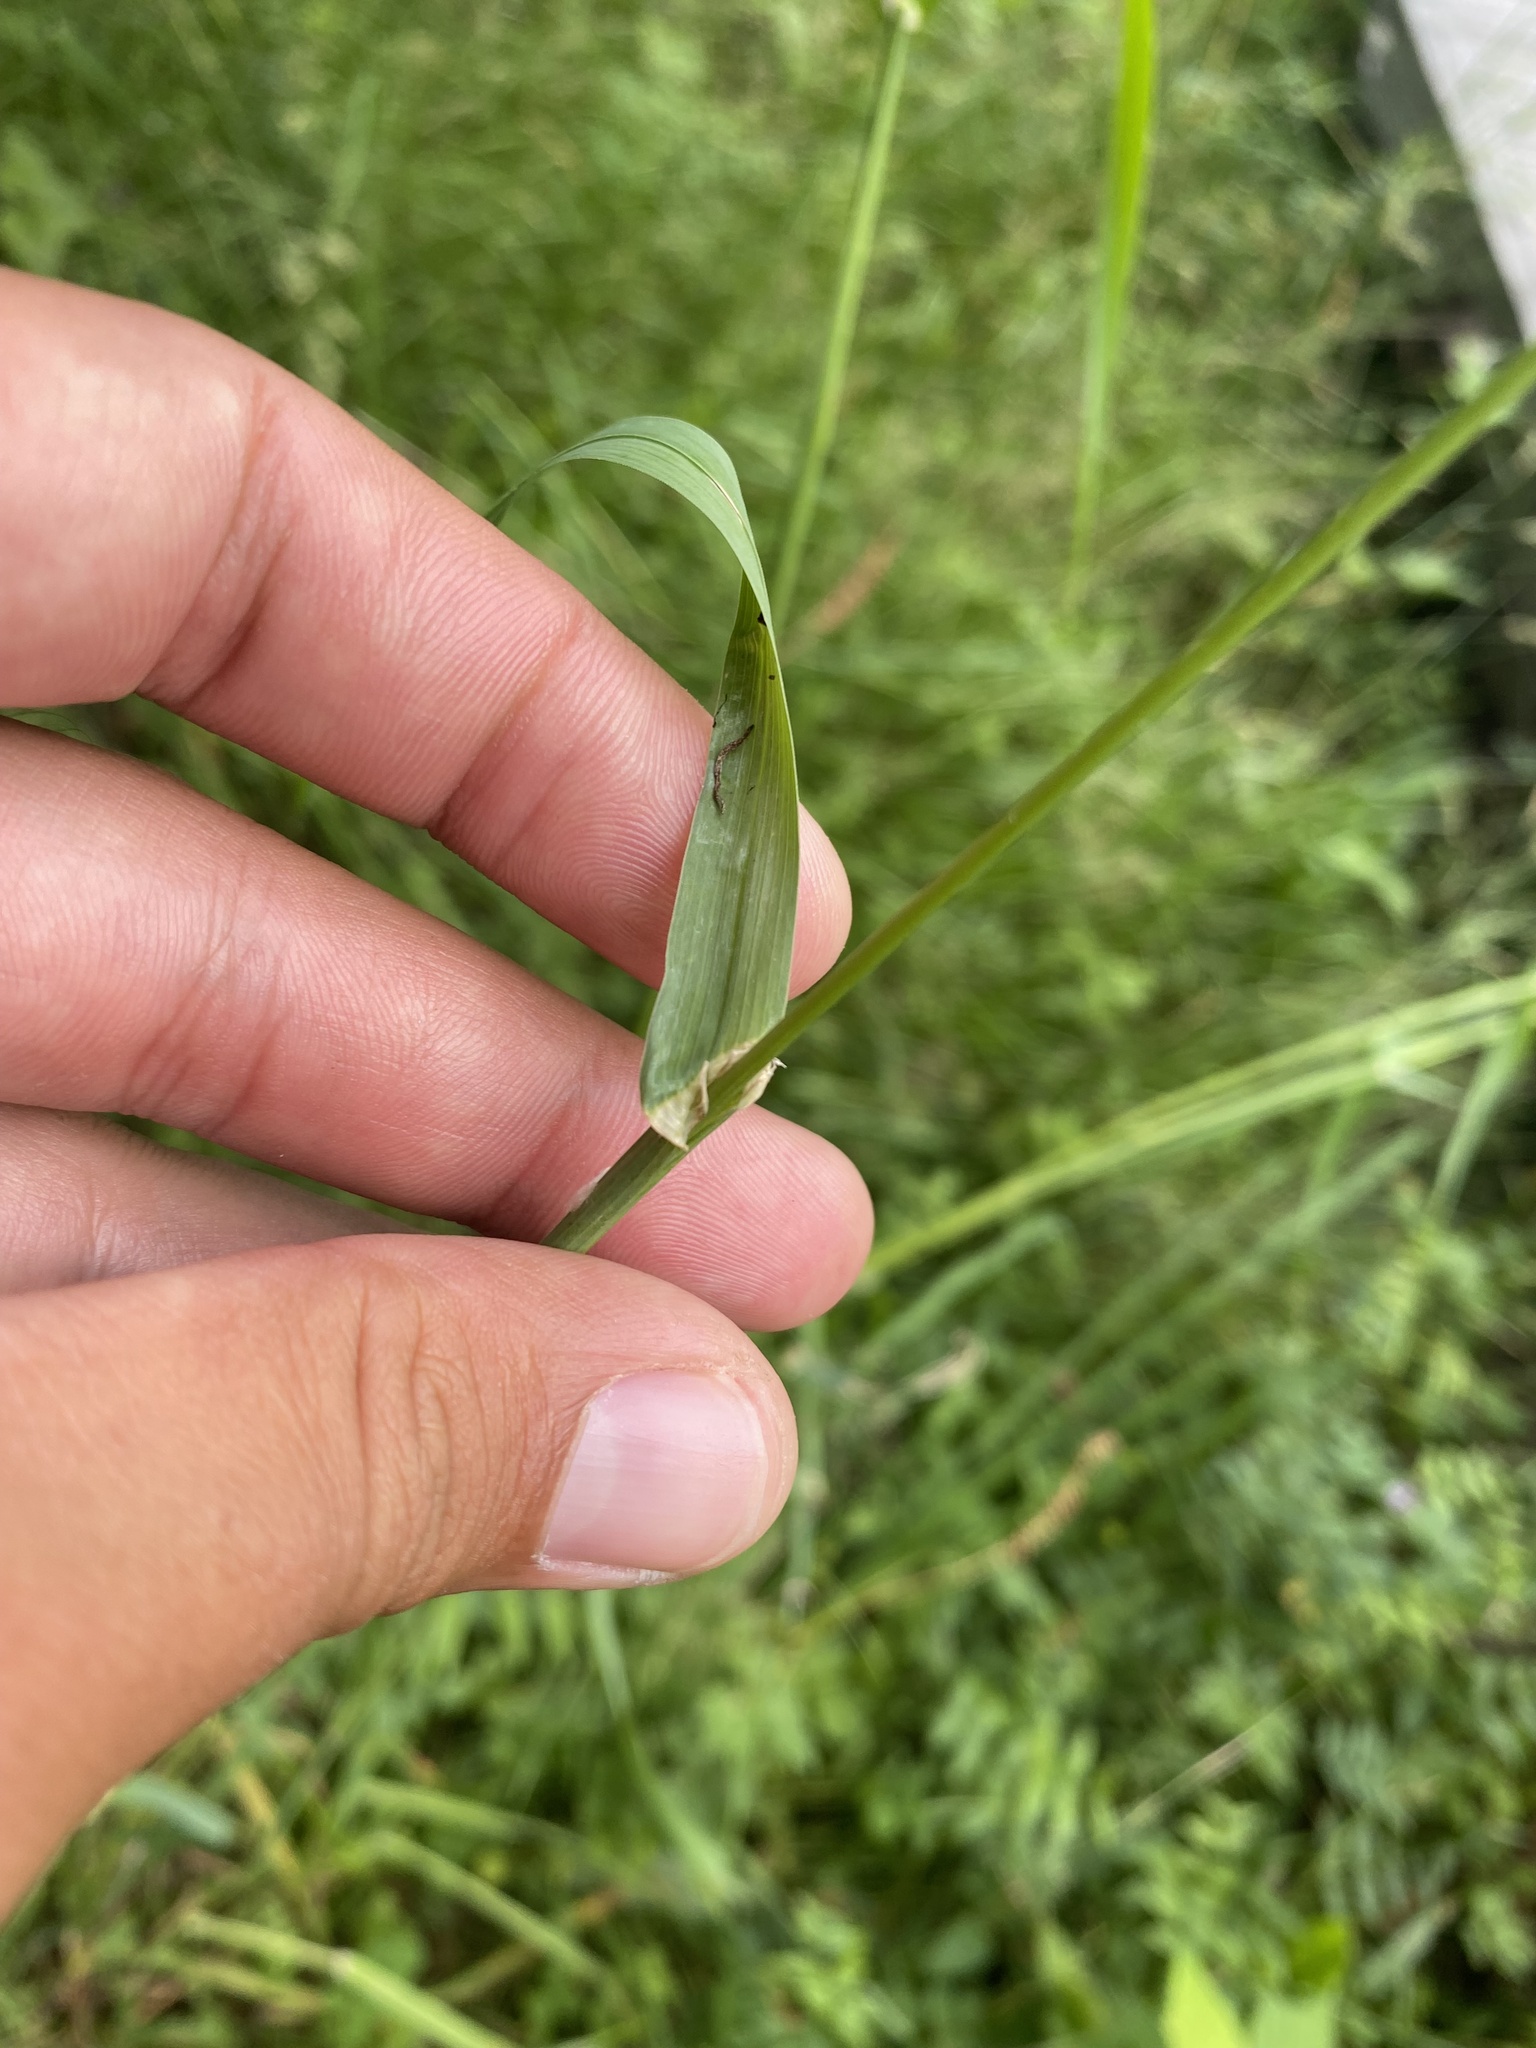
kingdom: Plantae
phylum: Tracheophyta
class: Liliopsida
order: Poales
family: Poaceae
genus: Dactylis
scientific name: Dactylis glomerata
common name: Orchardgrass
